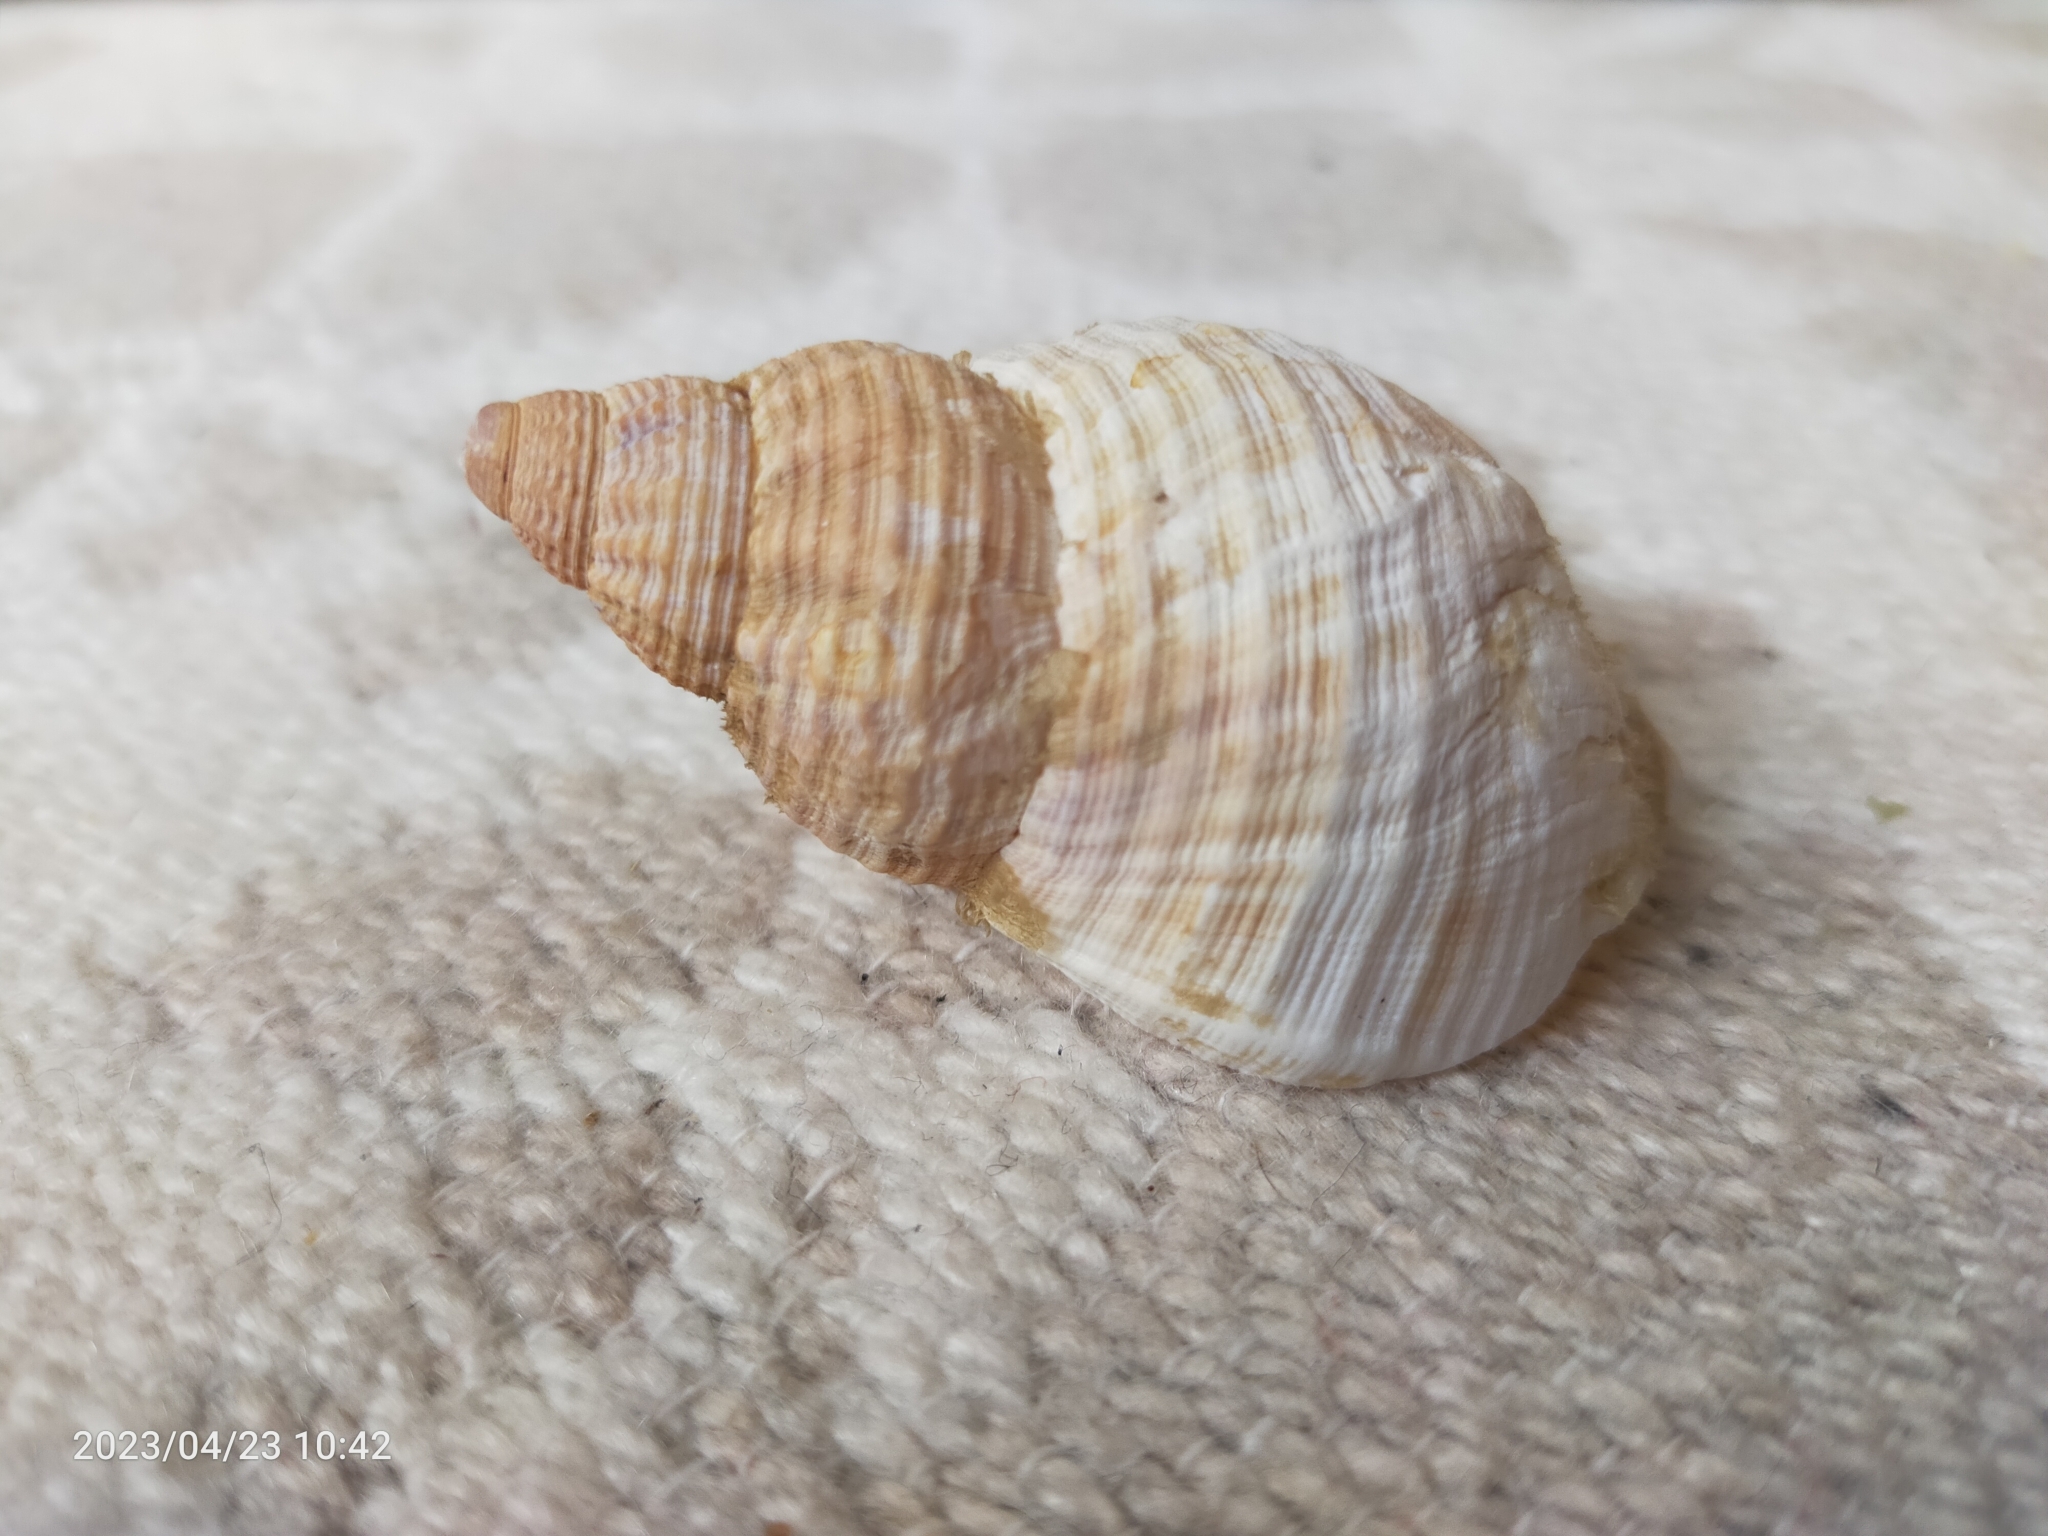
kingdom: Animalia
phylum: Mollusca
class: Gastropoda
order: Neogastropoda
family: Buccinidae
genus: Buccinum
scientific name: Buccinum undatum
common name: Common whelk
